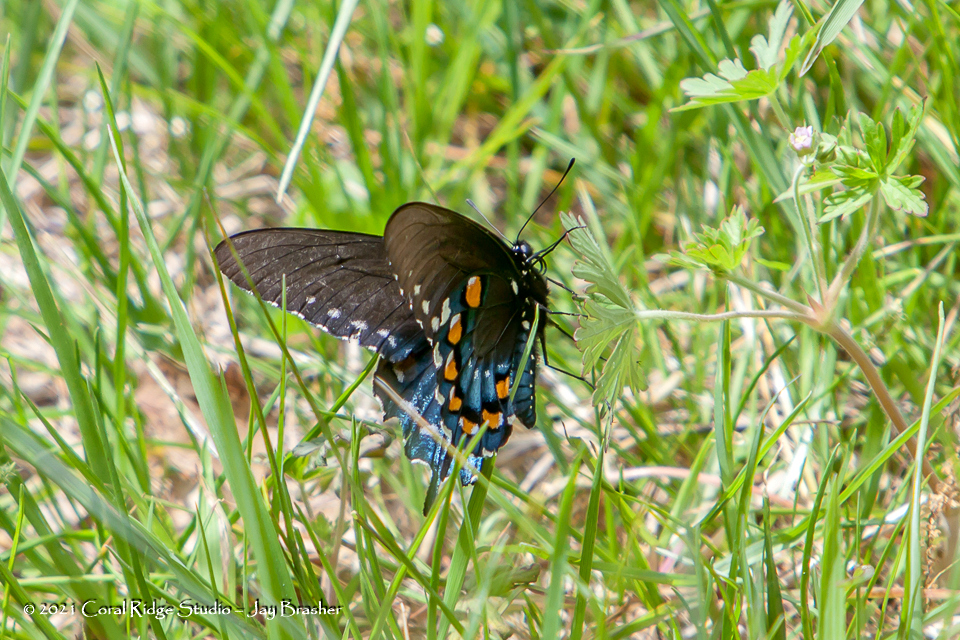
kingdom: Animalia
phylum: Arthropoda
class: Insecta
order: Lepidoptera
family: Papilionidae
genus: Battus
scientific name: Battus philenor
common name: Pipevine swallowtail
